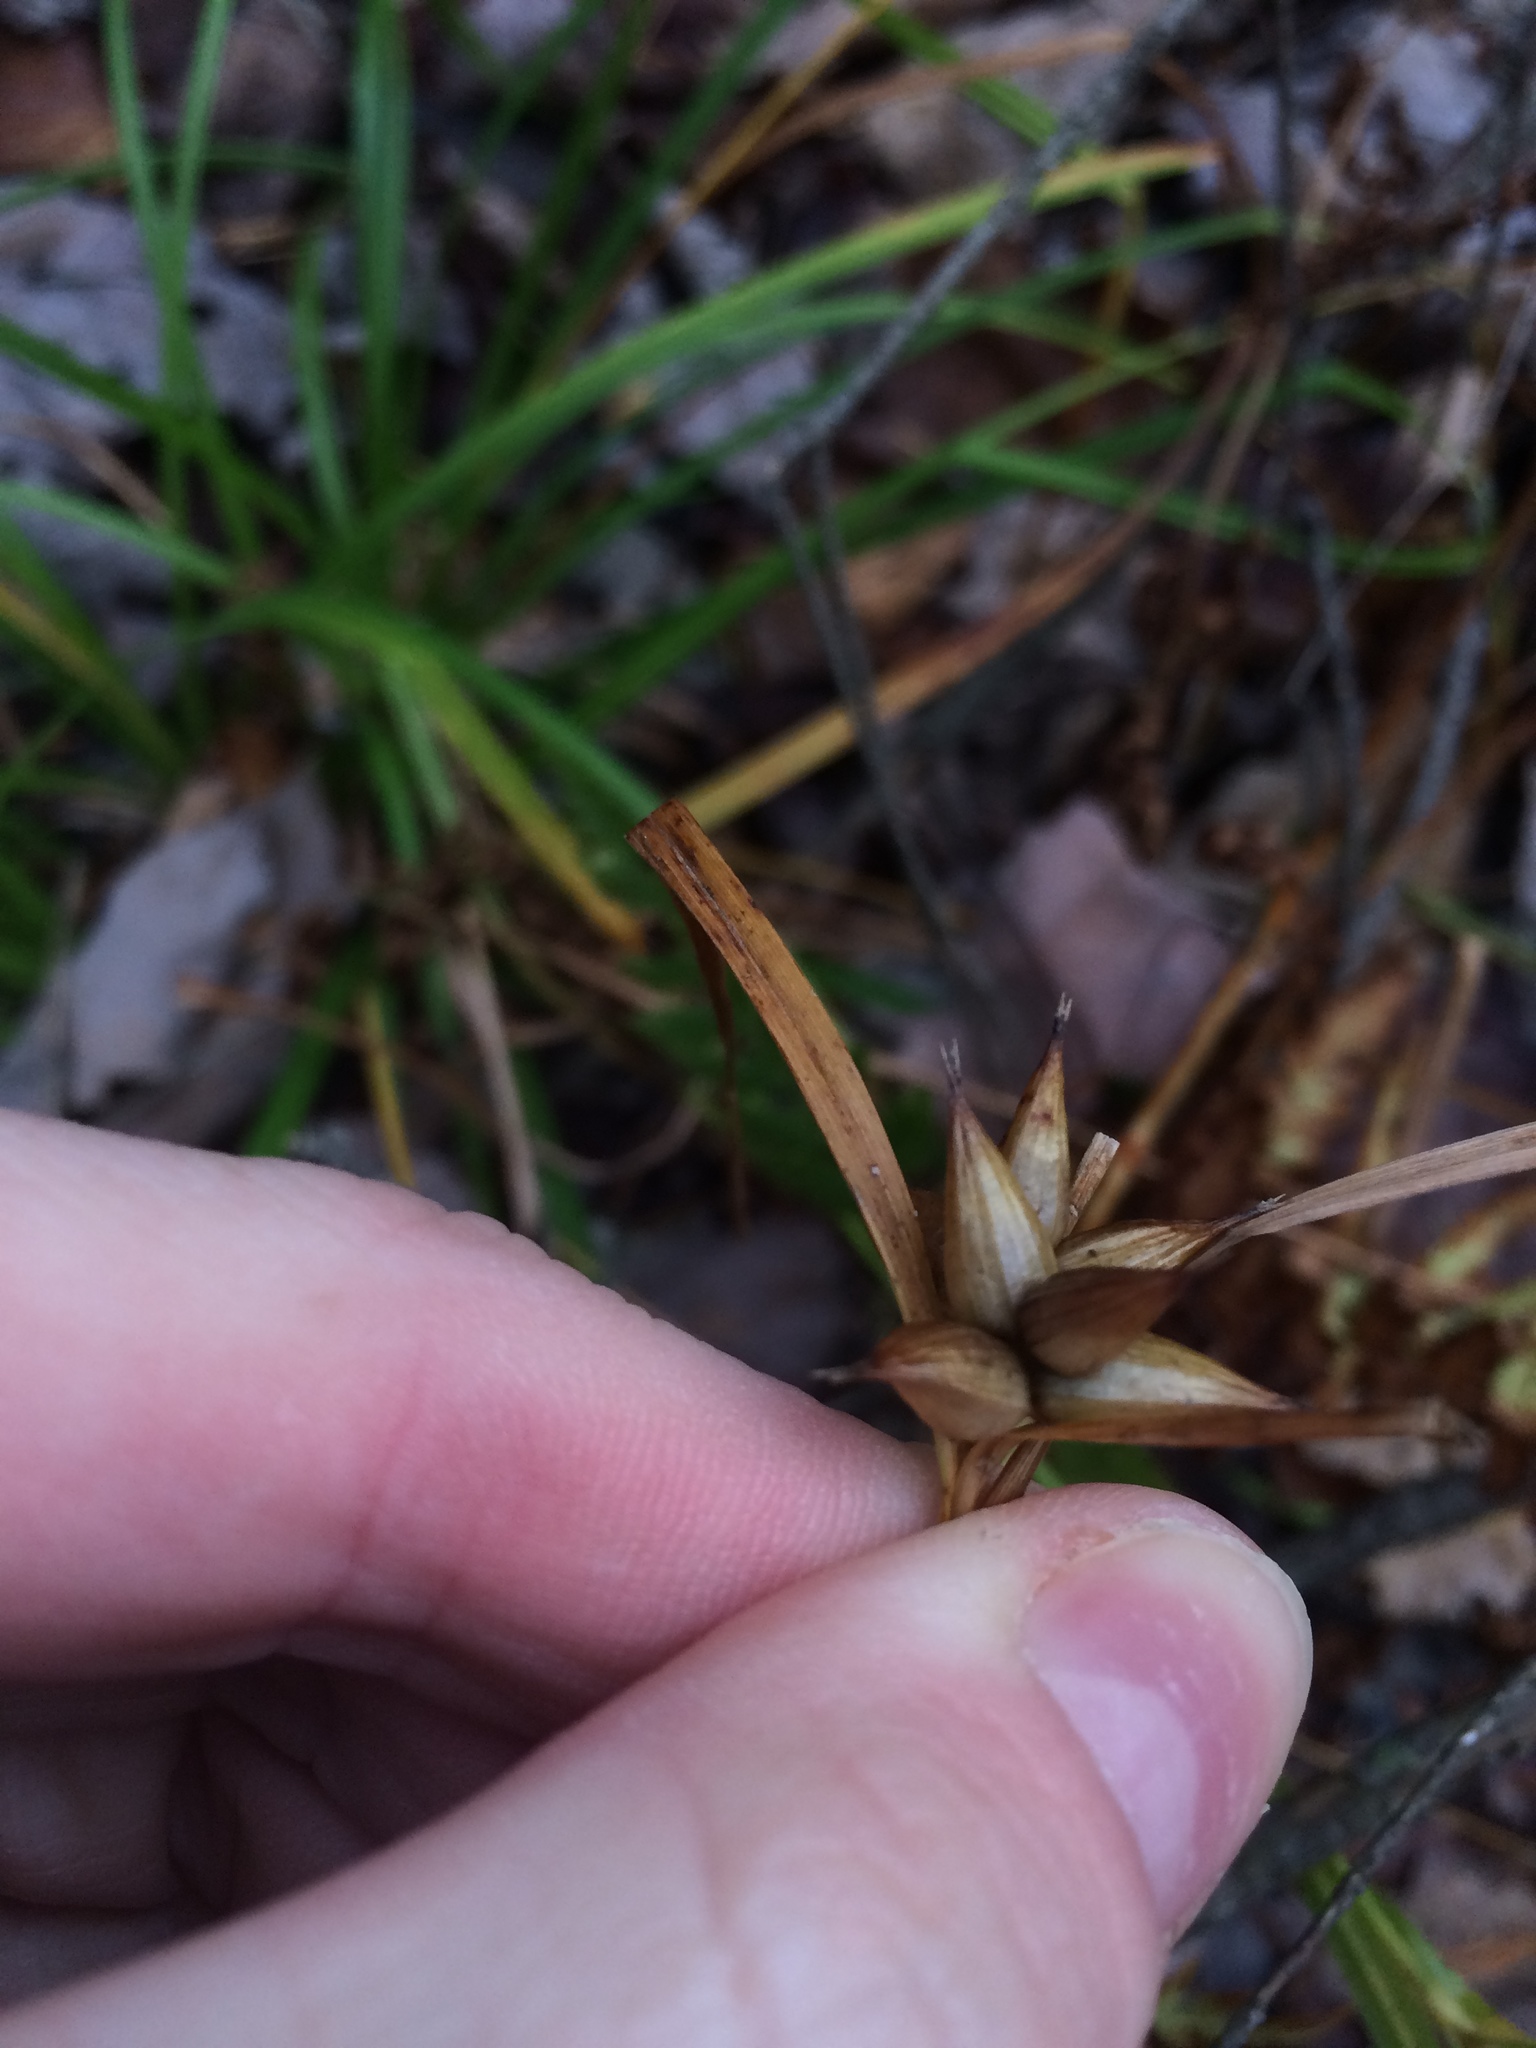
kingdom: Plantae
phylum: Tracheophyta
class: Liliopsida
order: Poales
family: Cyperaceae
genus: Carex
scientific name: Carex intumescens
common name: Greater bladder sedge
